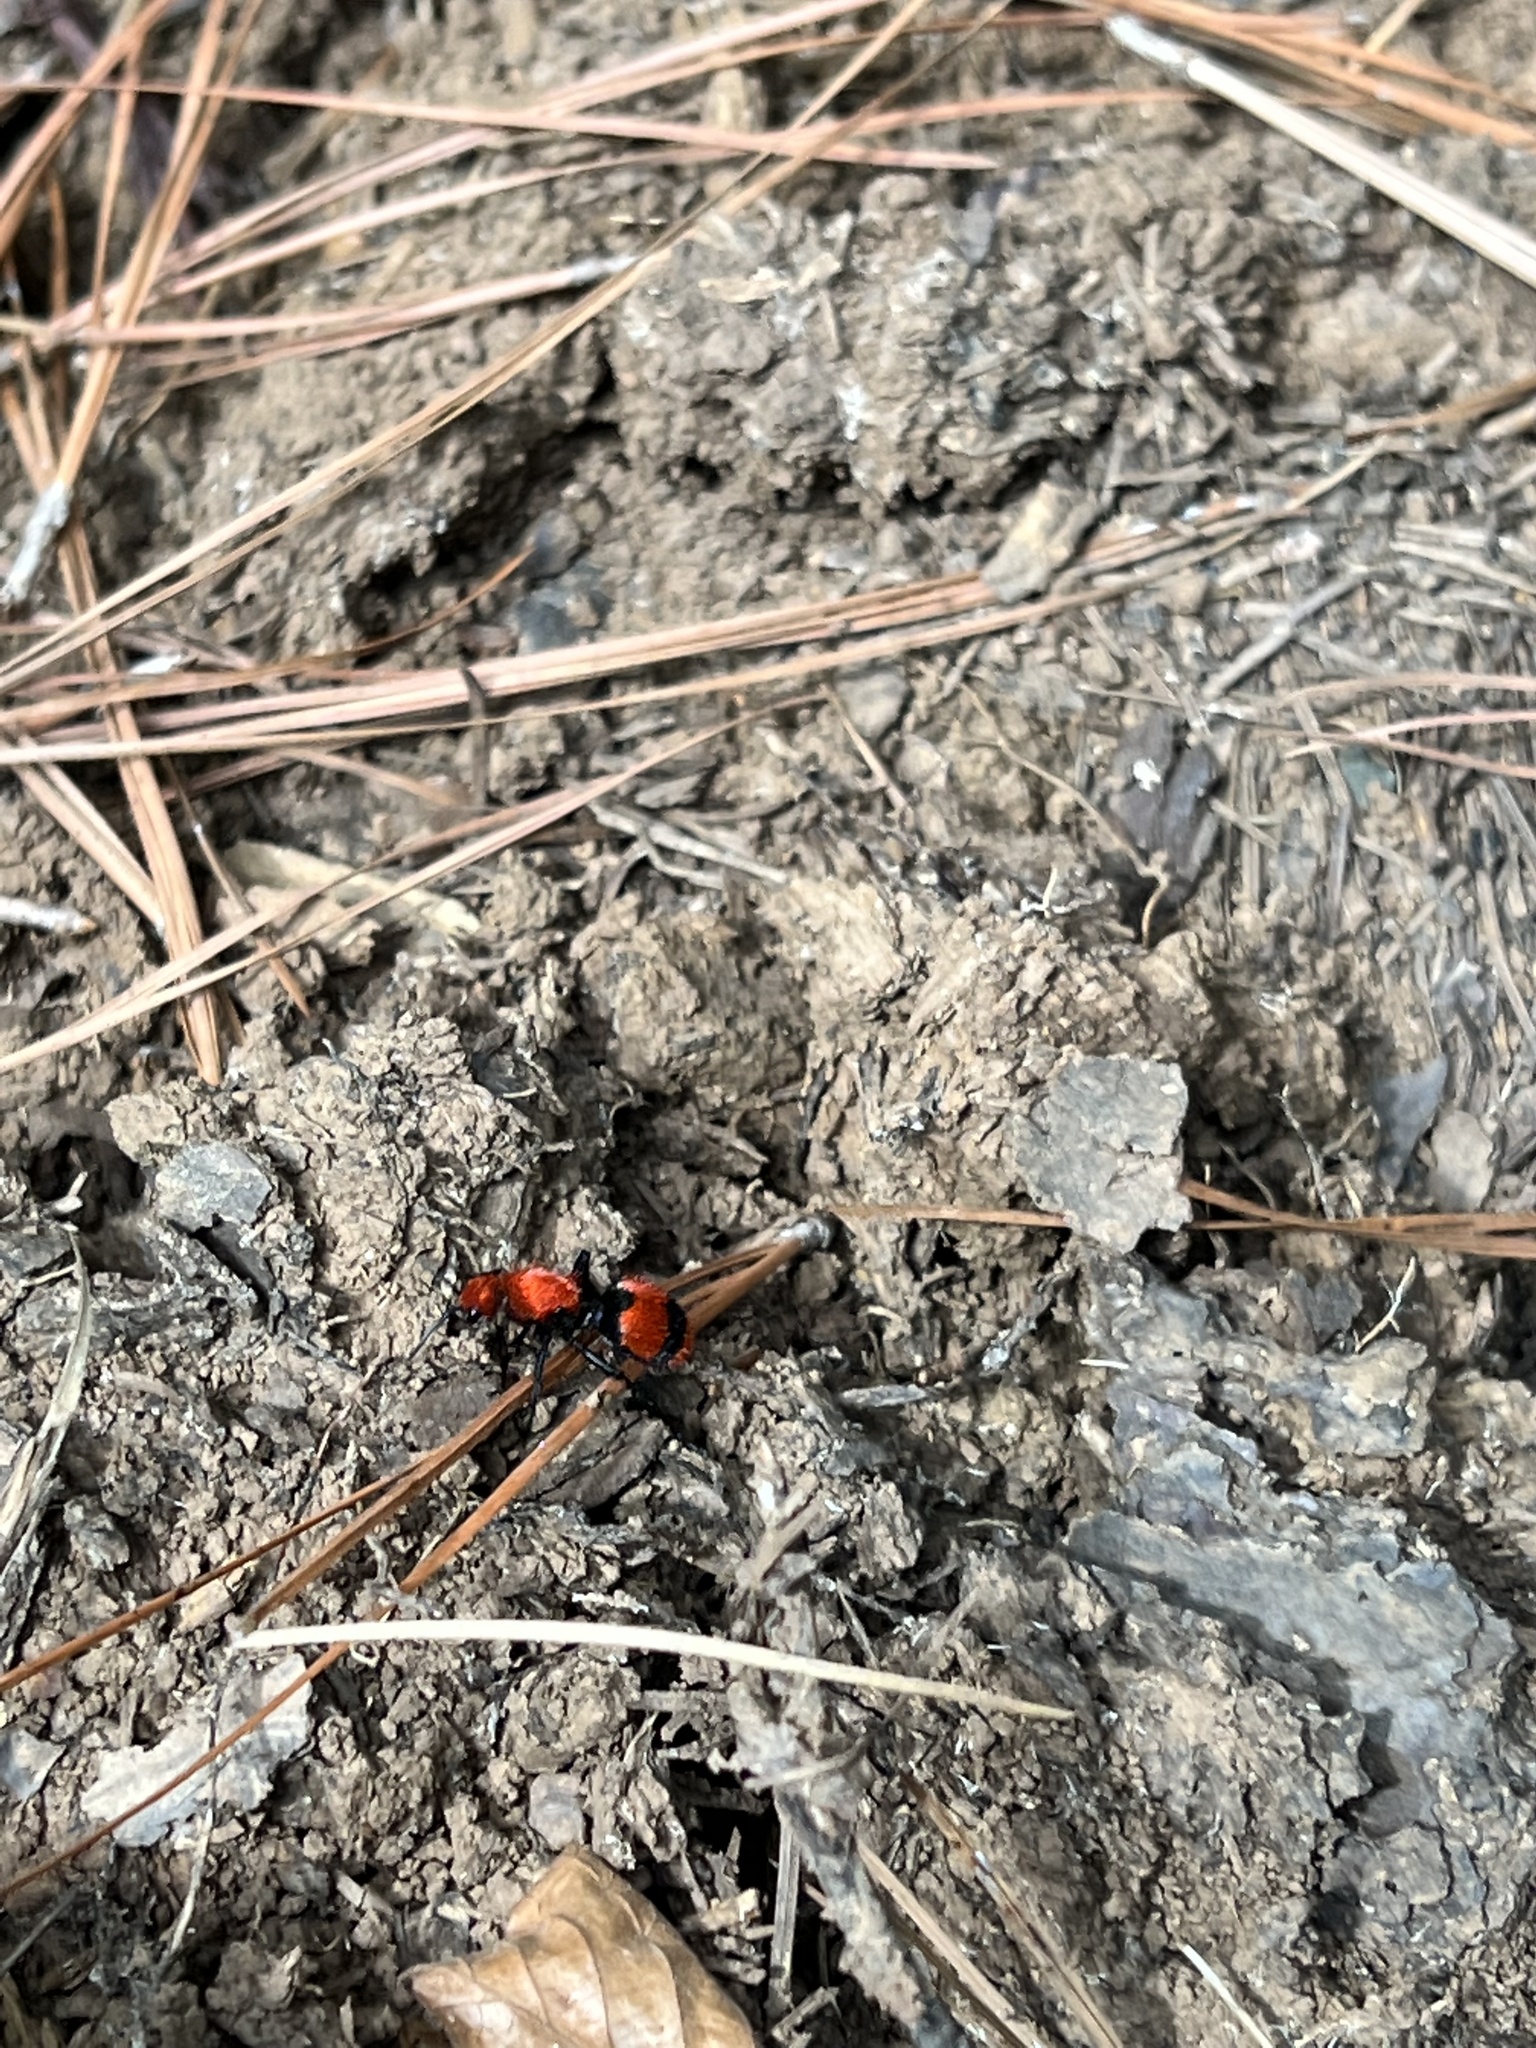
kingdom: Animalia
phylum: Arthropoda
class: Insecta
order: Hymenoptera
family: Mutillidae
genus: Dasymutilla
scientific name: Dasymutilla occidentalis
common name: Common eastern velvet ant
